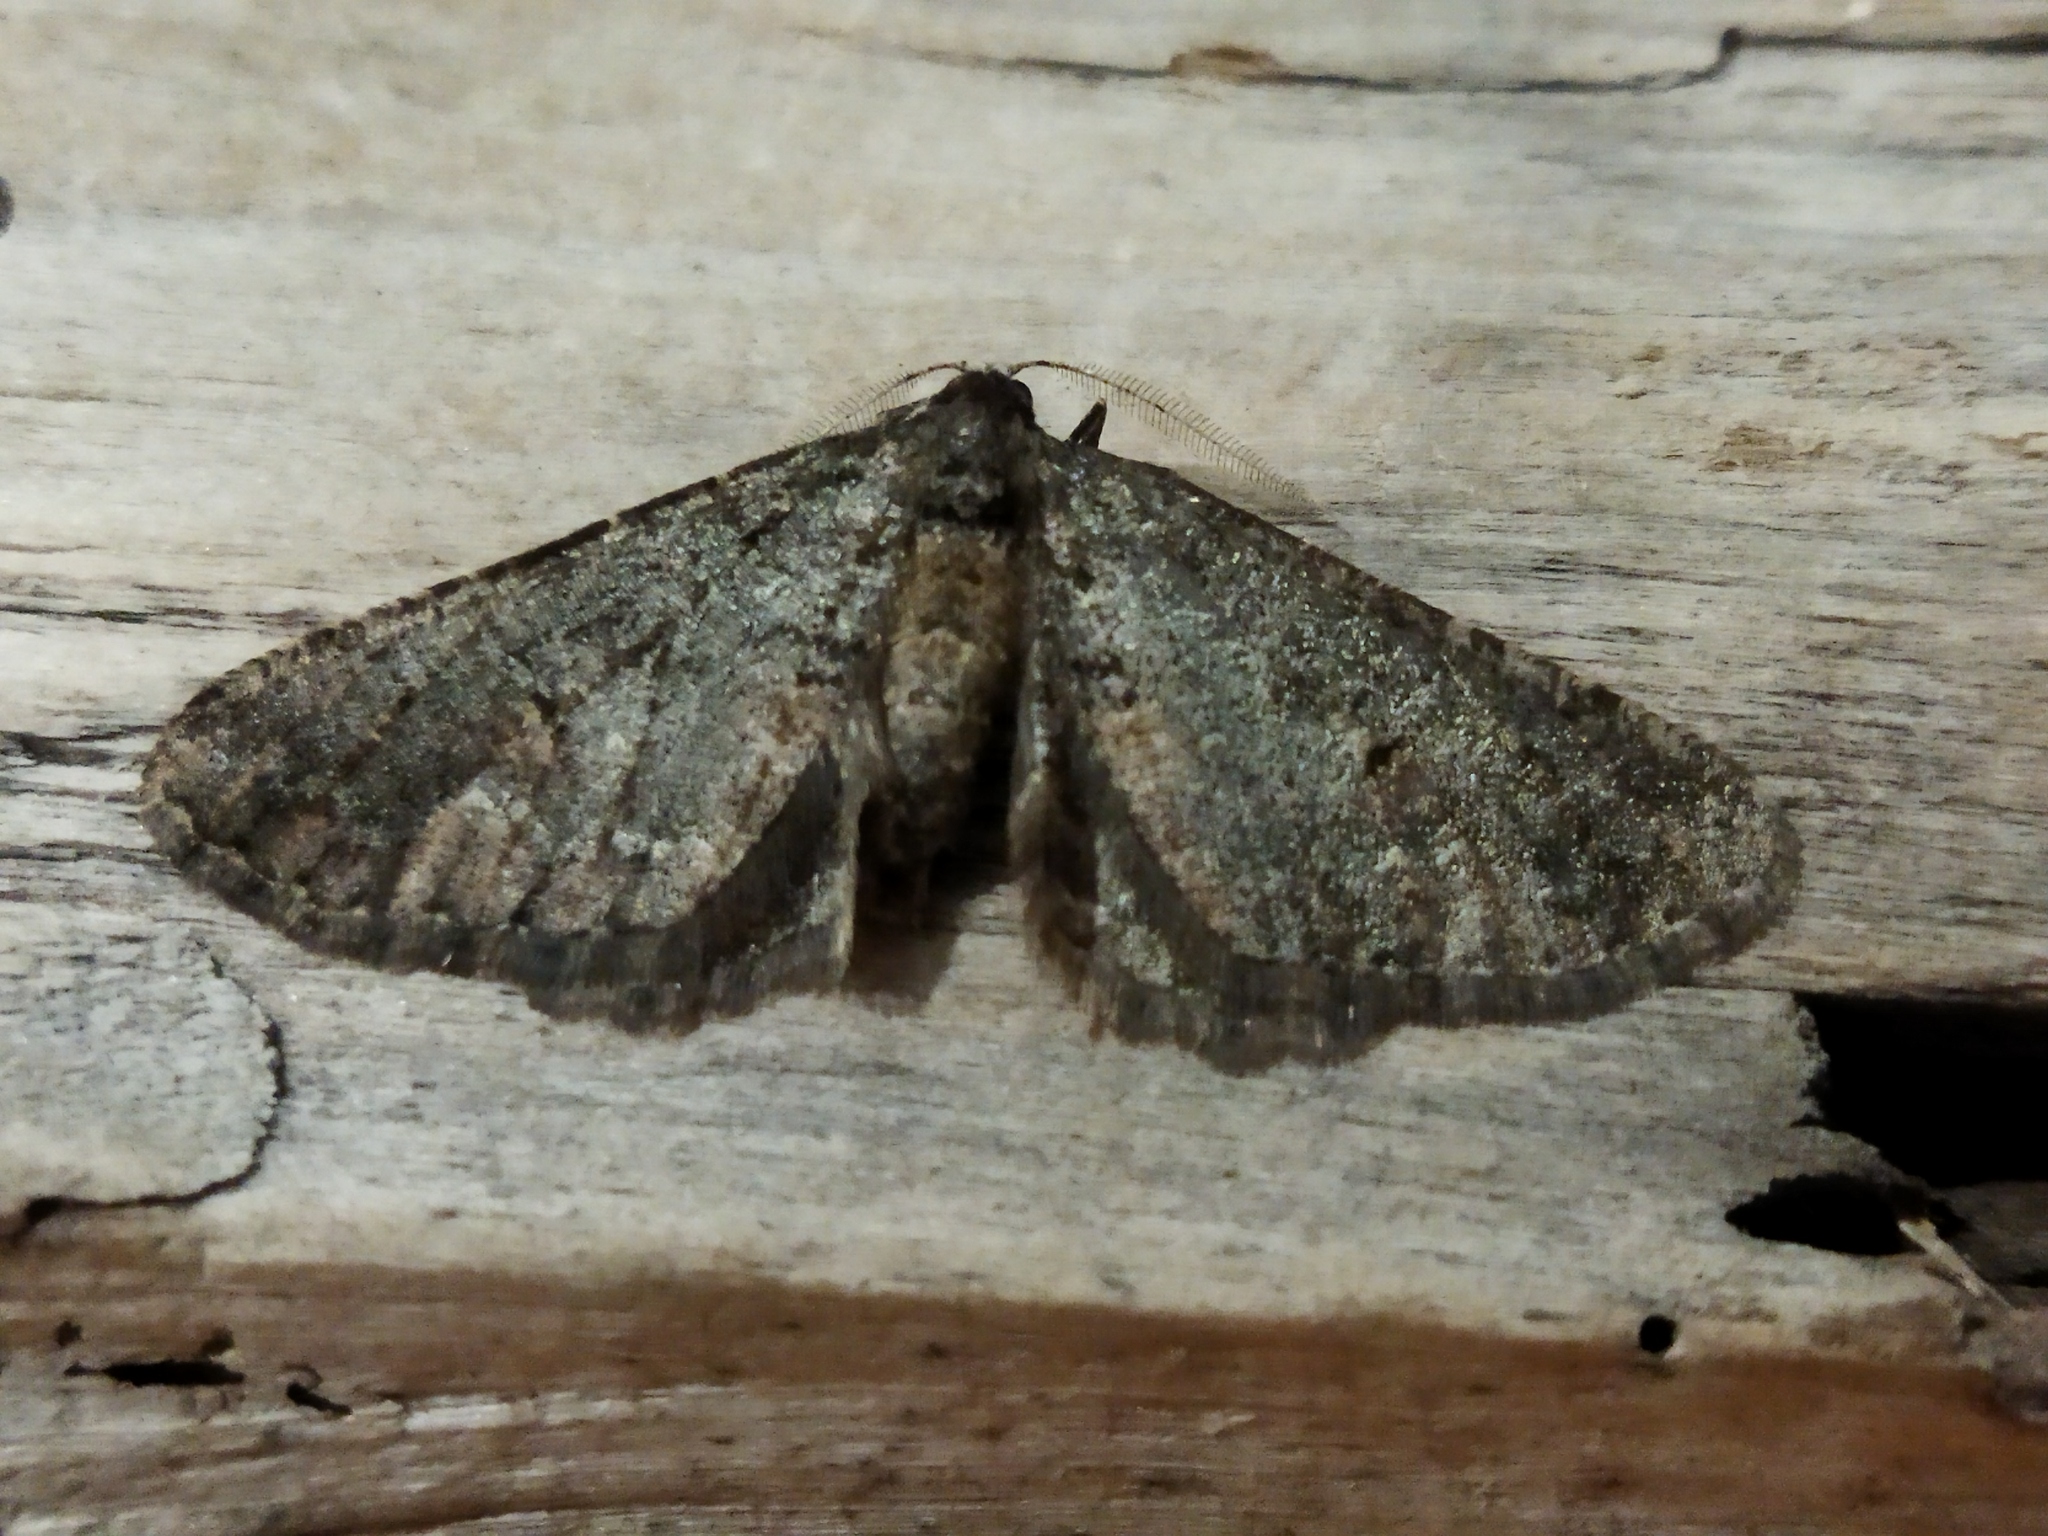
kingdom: Animalia
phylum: Arthropoda
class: Insecta
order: Lepidoptera
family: Geometridae
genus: Agriopis
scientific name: Agriopis bajaria
